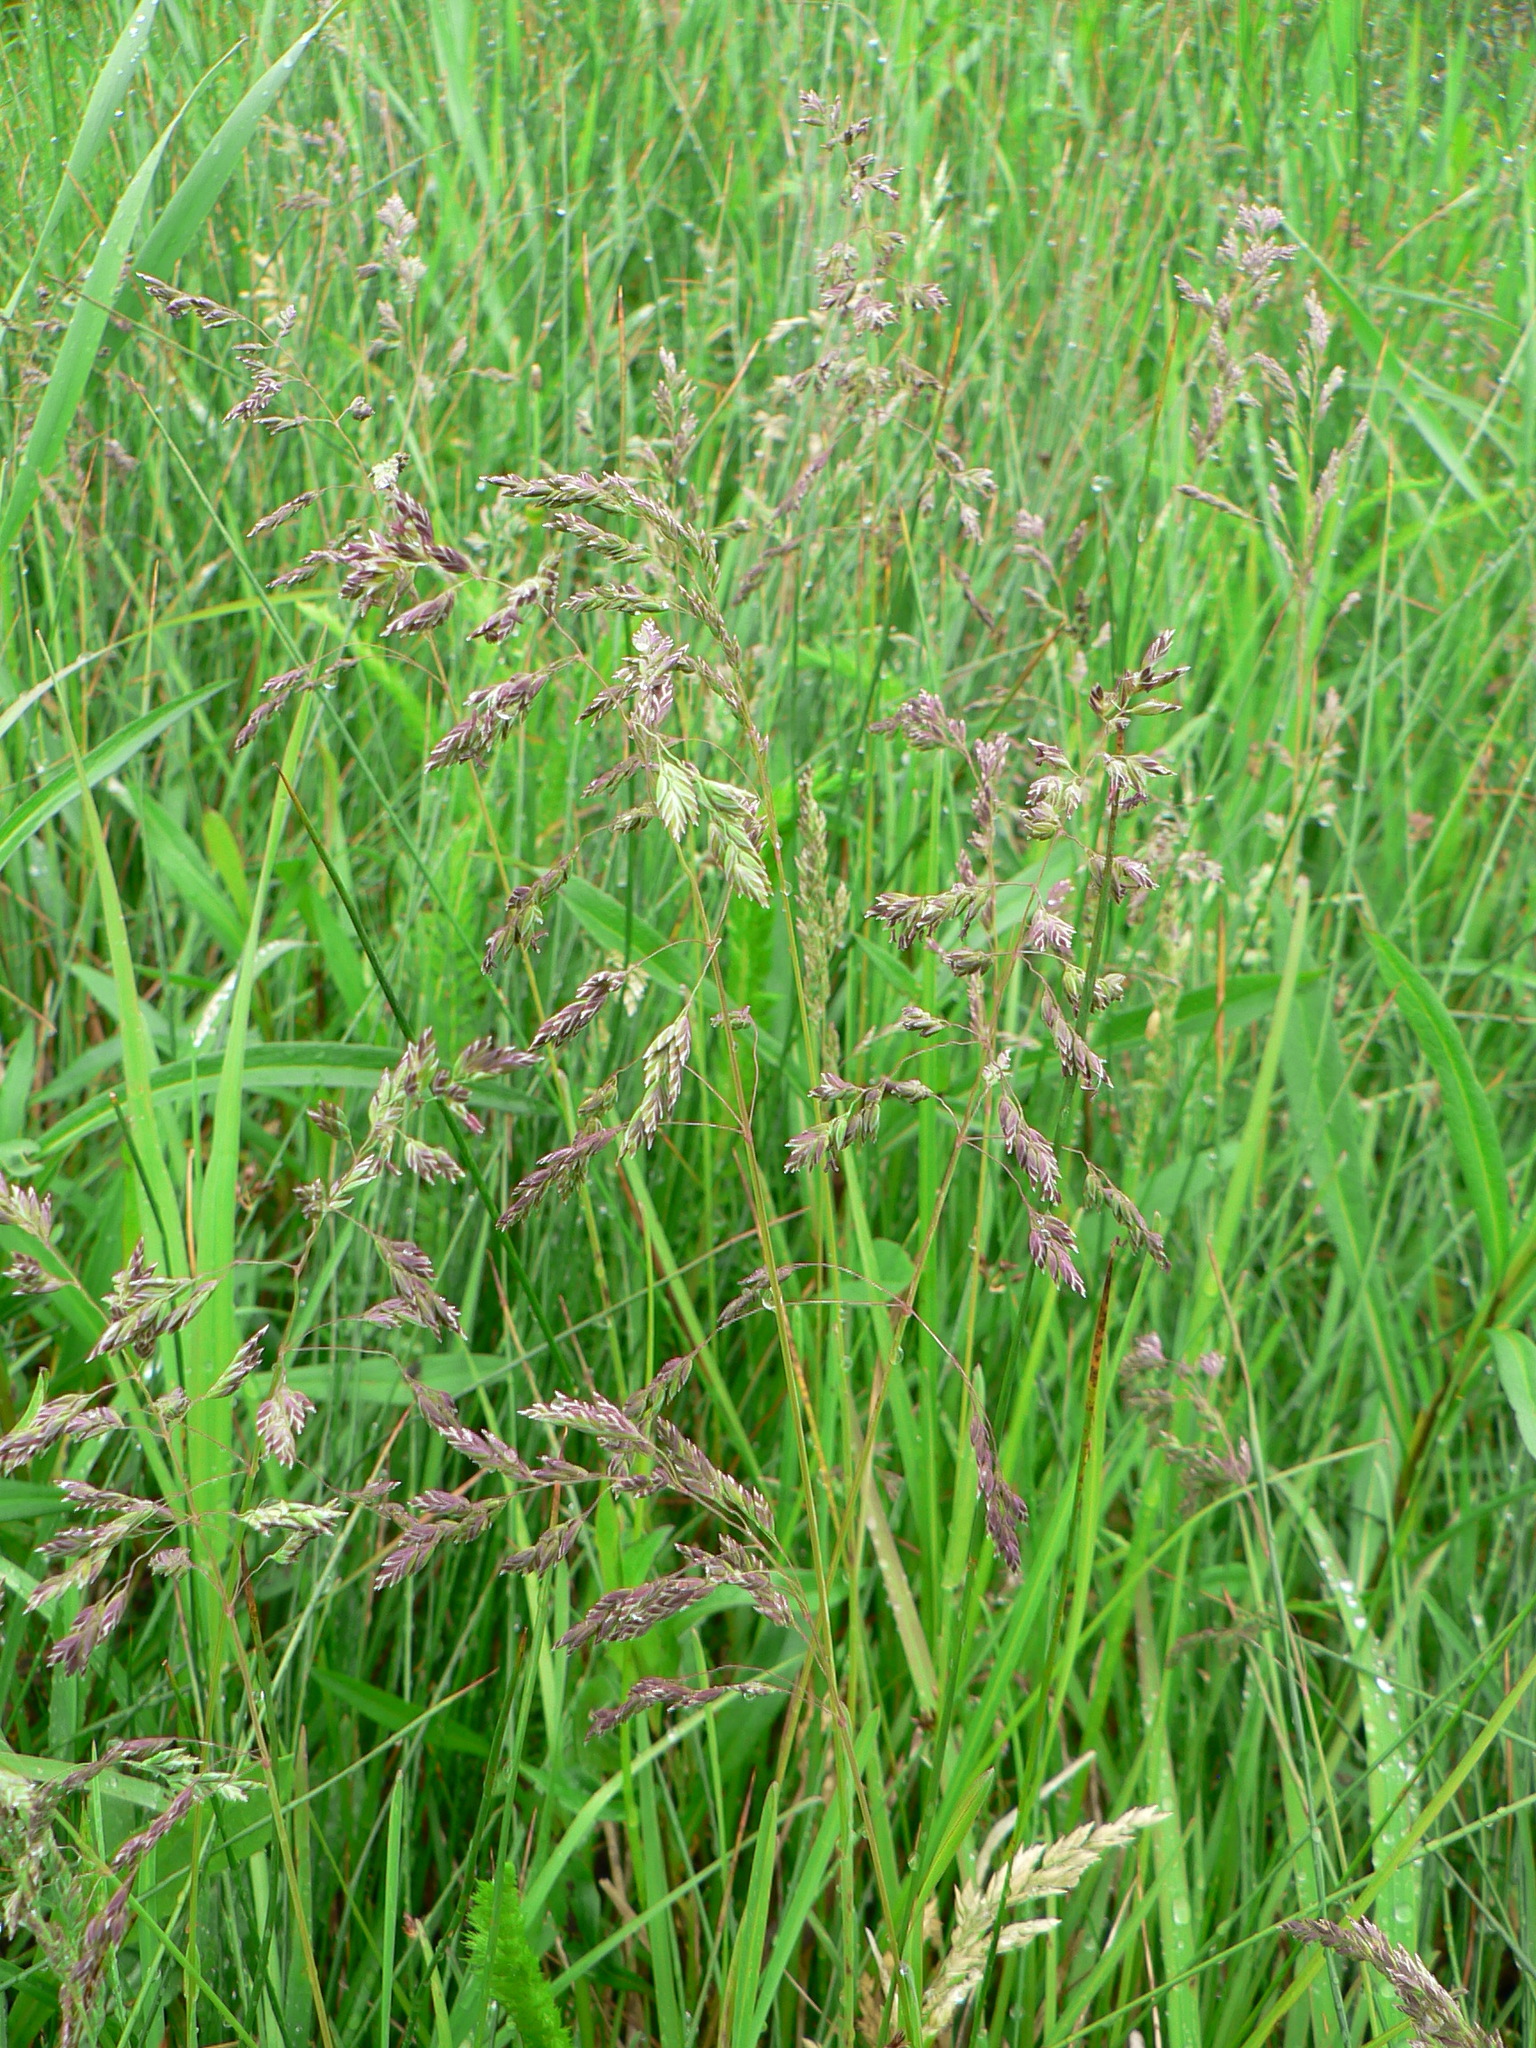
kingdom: Plantae
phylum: Tracheophyta
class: Liliopsida
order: Poales
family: Poaceae
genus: Poa
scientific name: Poa pratensis
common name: Kentucky bluegrass
